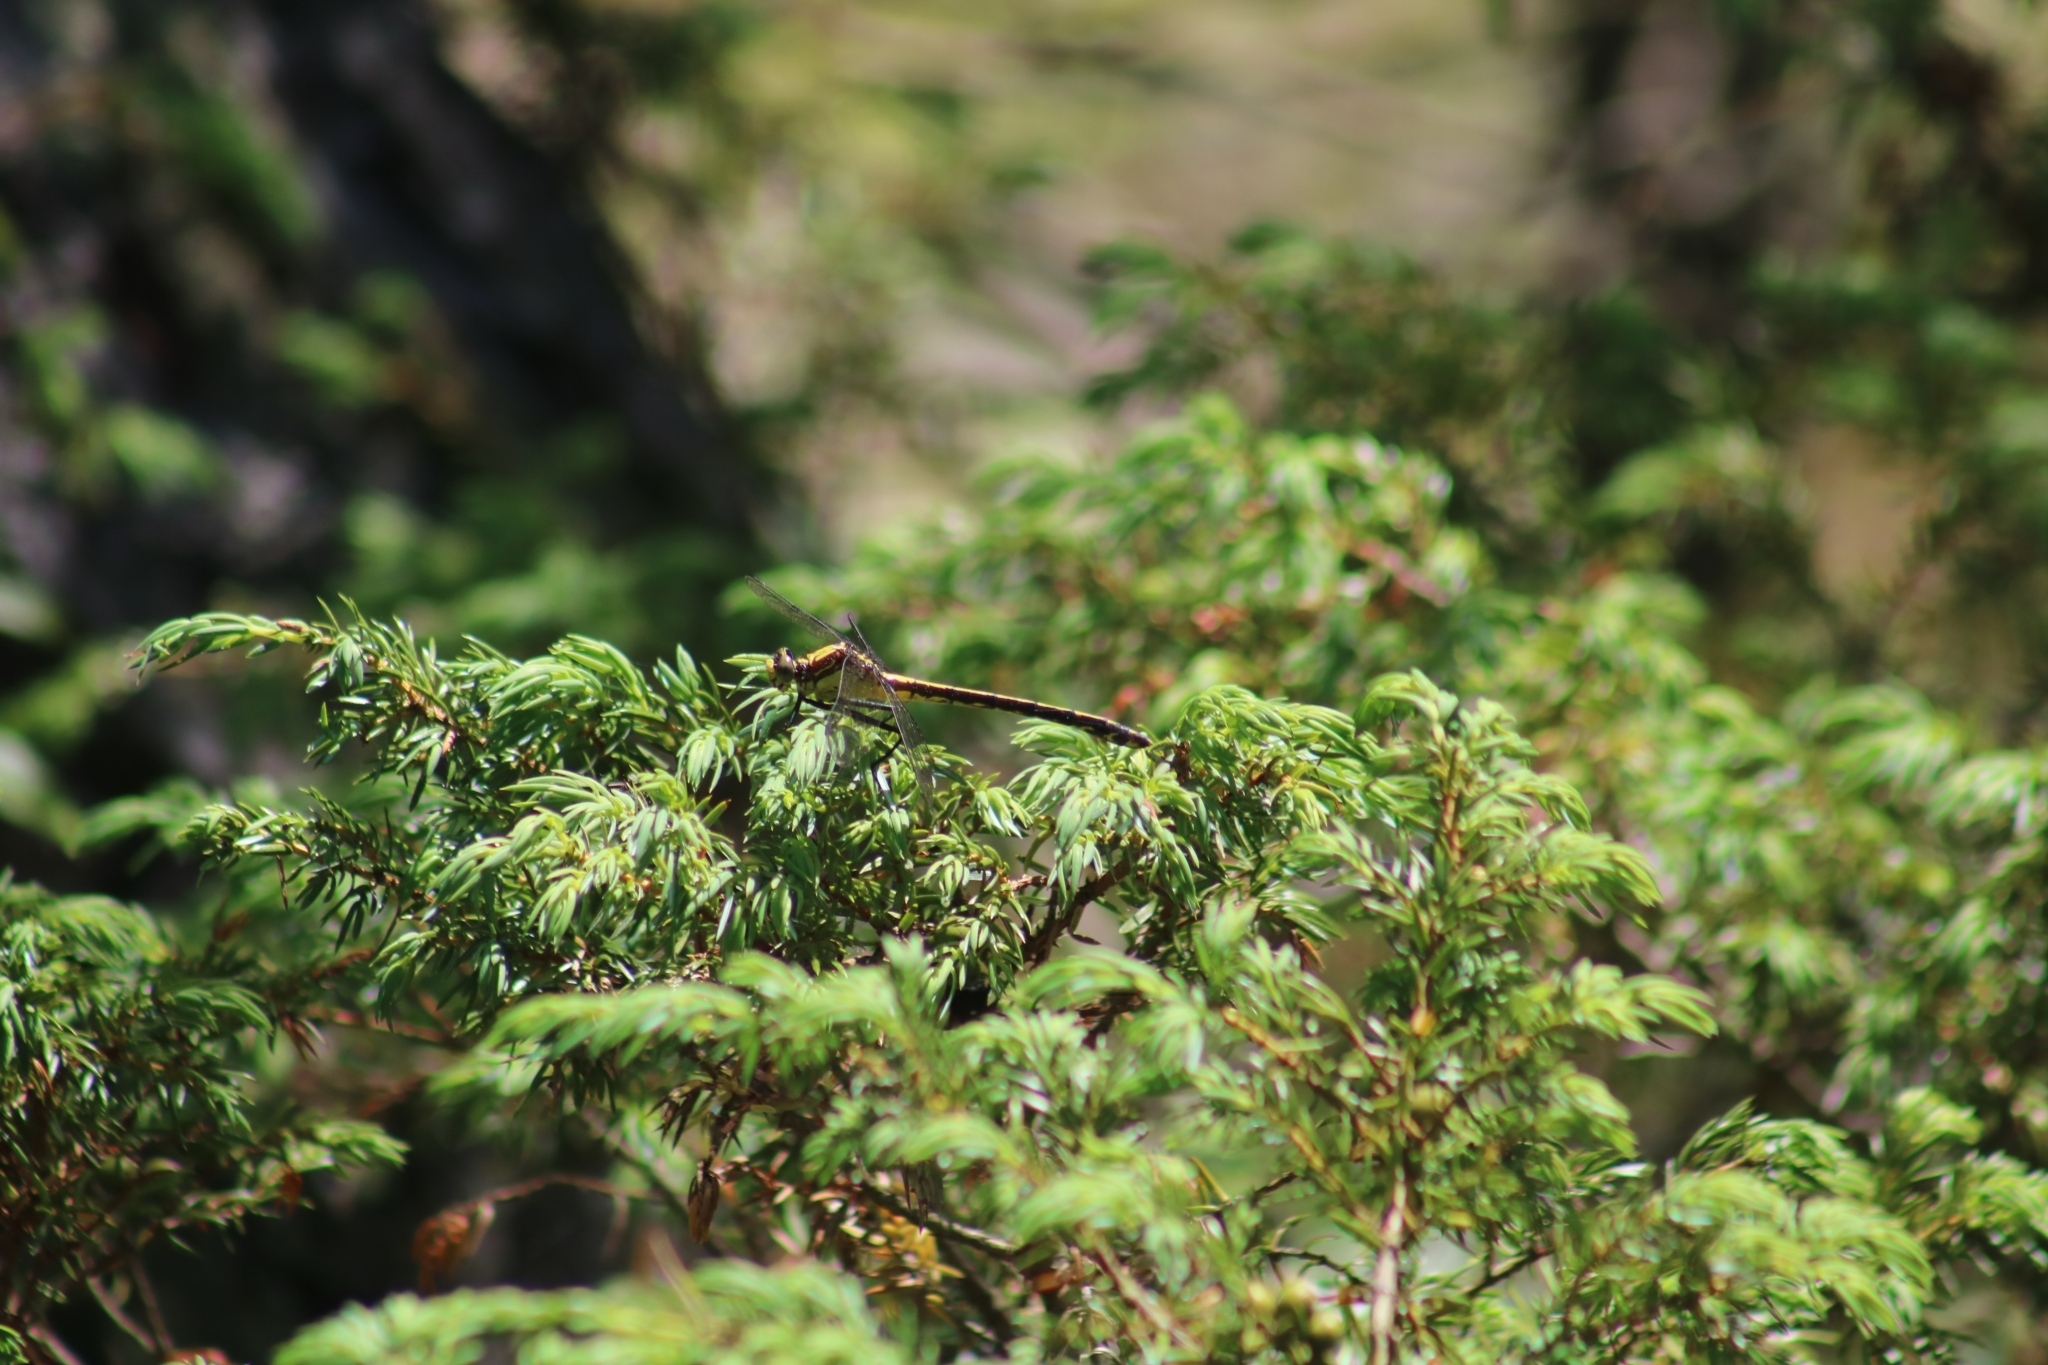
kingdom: Animalia
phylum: Arthropoda
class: Insecta
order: Odonata
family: Gomphidae
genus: Dromogomphus
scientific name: Dromogomphus spinosus
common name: Black-shouldered spinyleg
